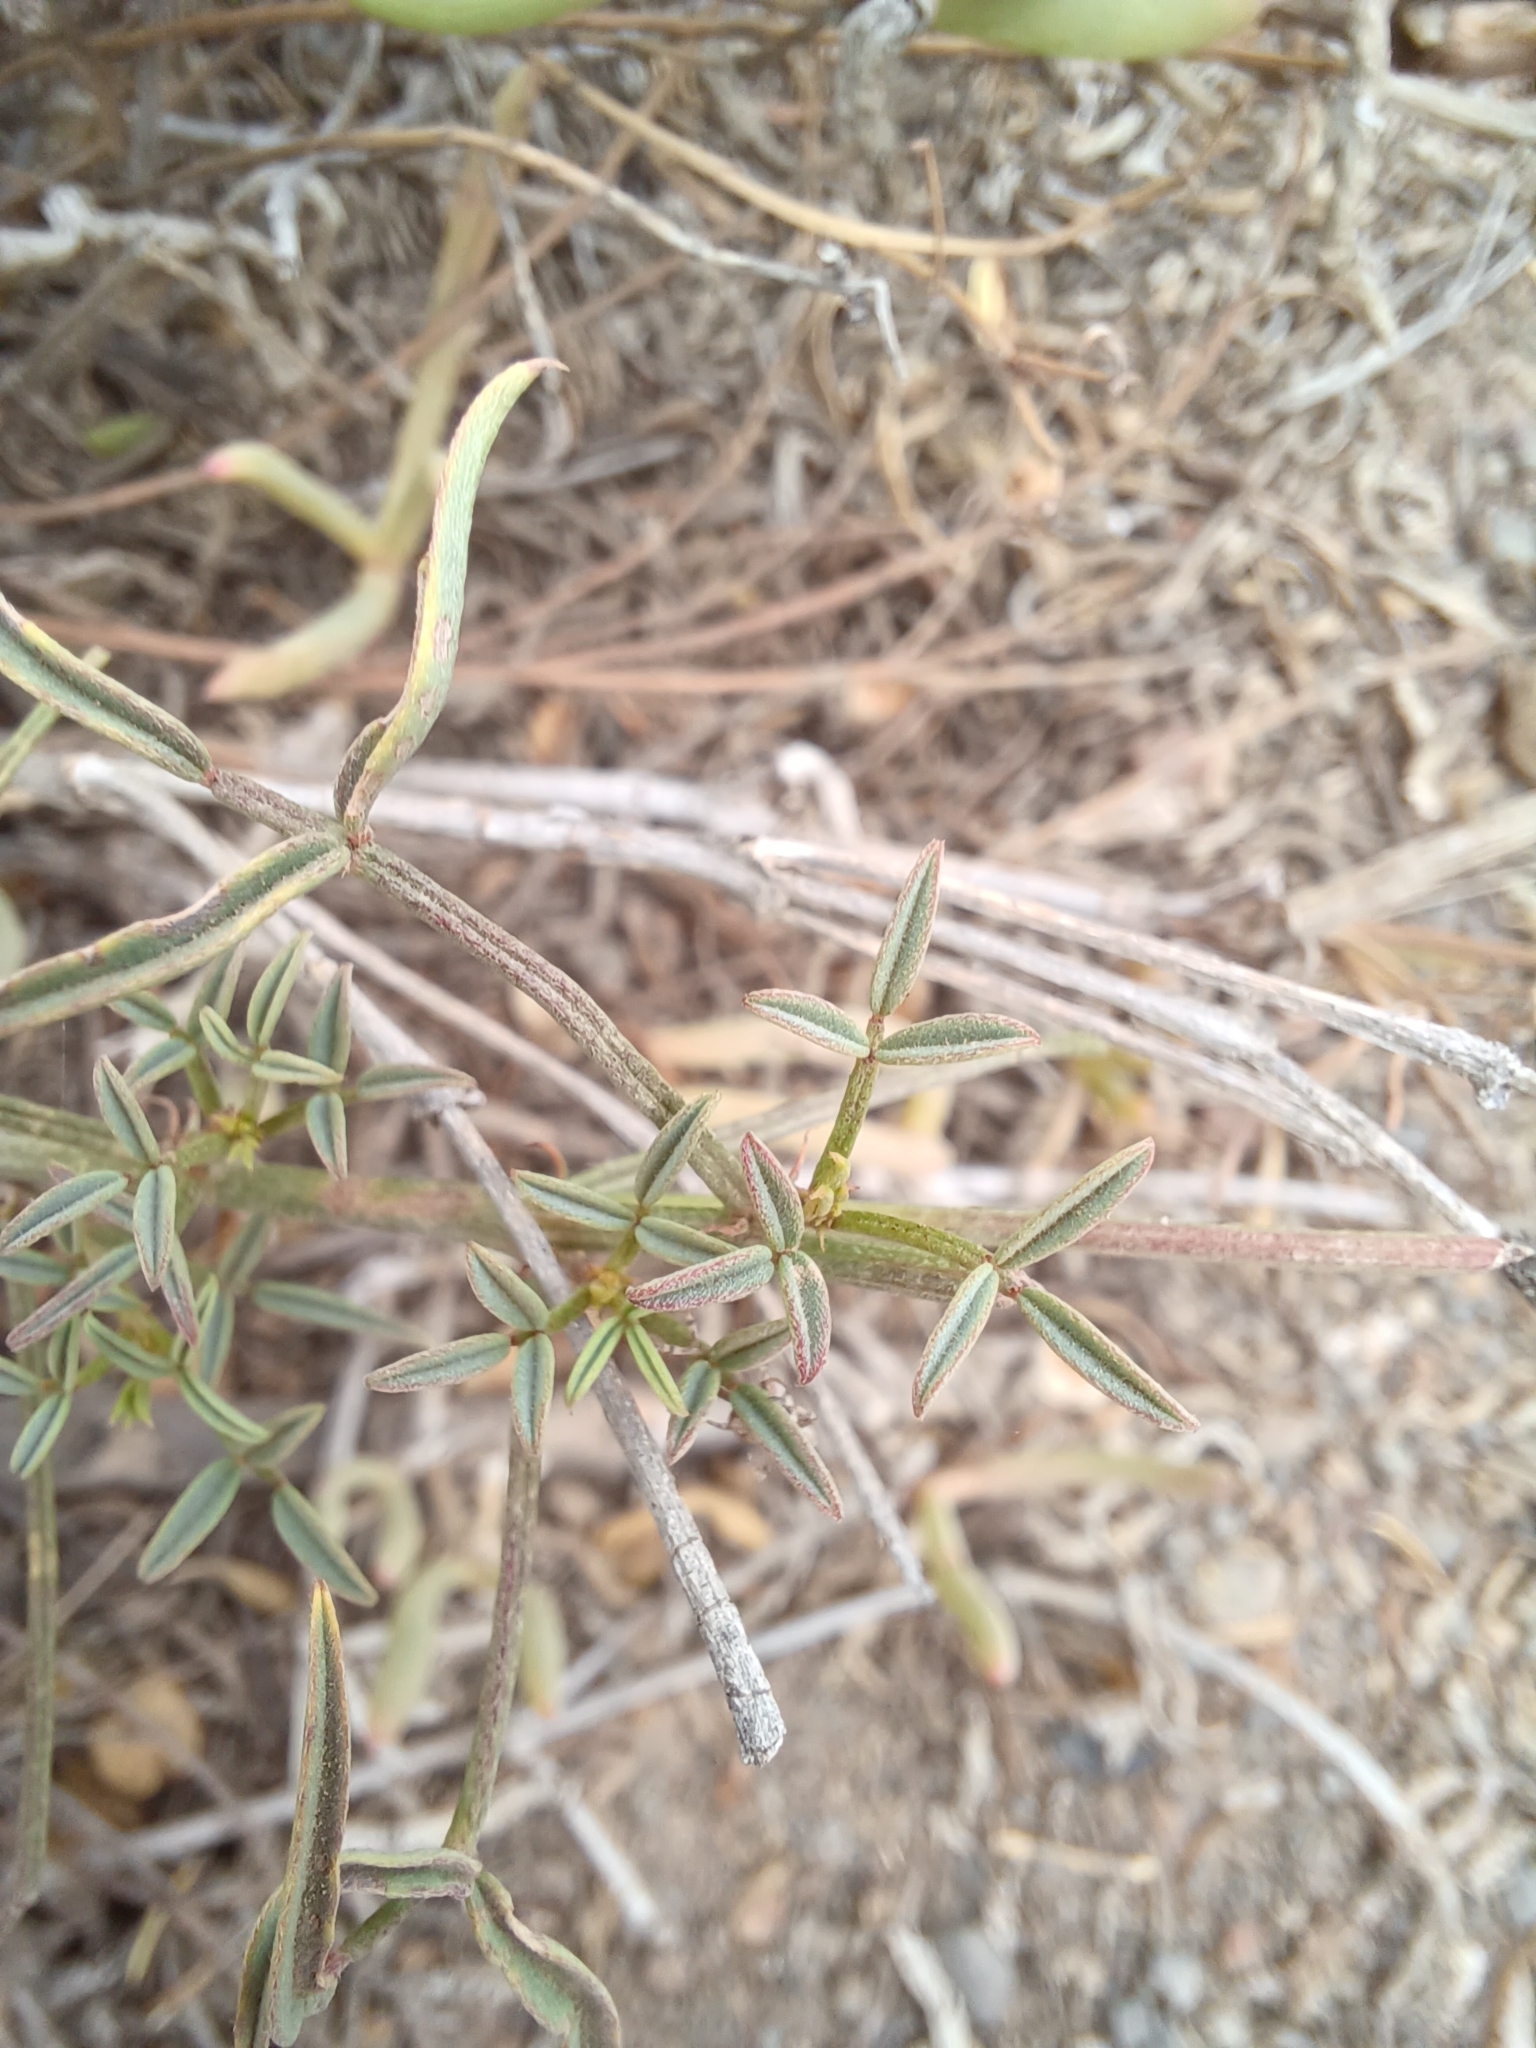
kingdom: Plantae
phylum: Tracheophyta
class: Magnoliopsida
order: Fabales
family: Fabaceae
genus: Indigofera
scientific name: Indigofera heterophylla
